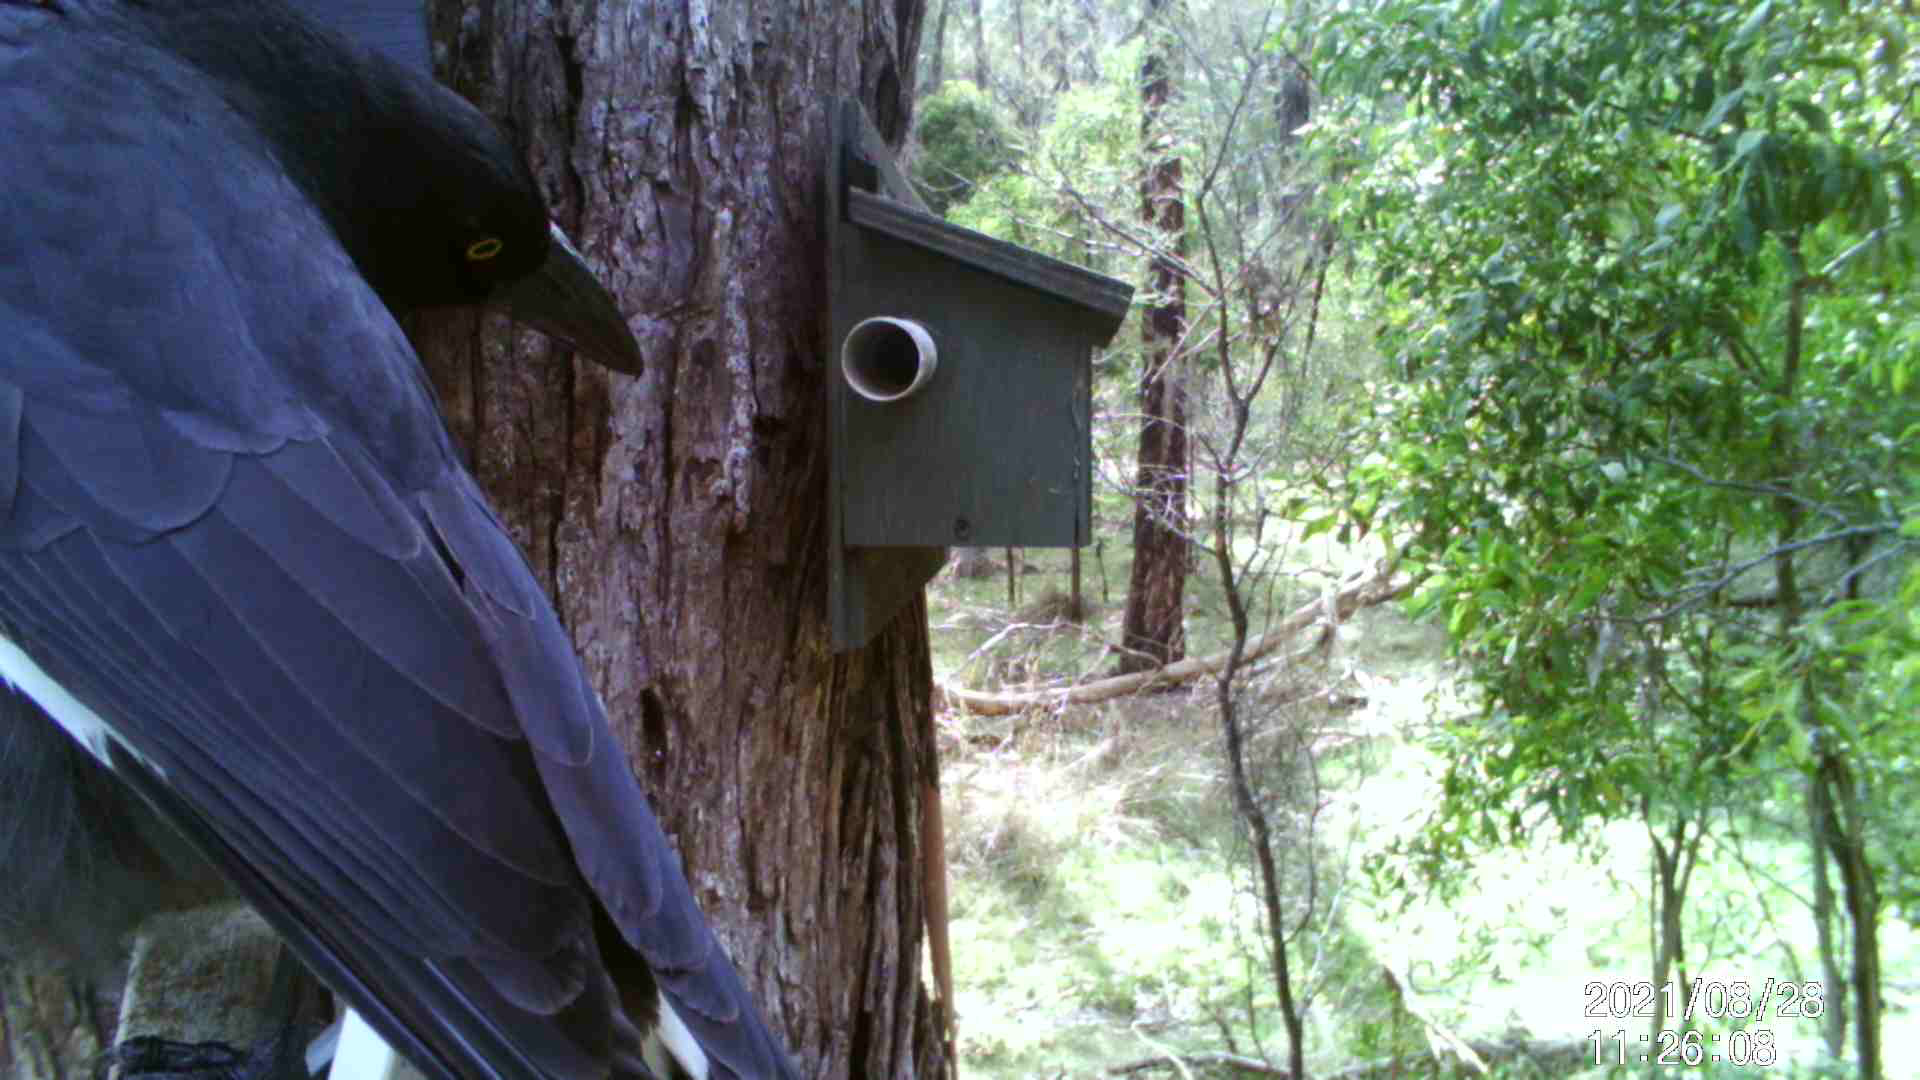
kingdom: Animalia
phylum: Chordata
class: Aves
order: Passeriformes
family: Cracticidae
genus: Strepera
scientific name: Strepera graculina
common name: Pied currawong
